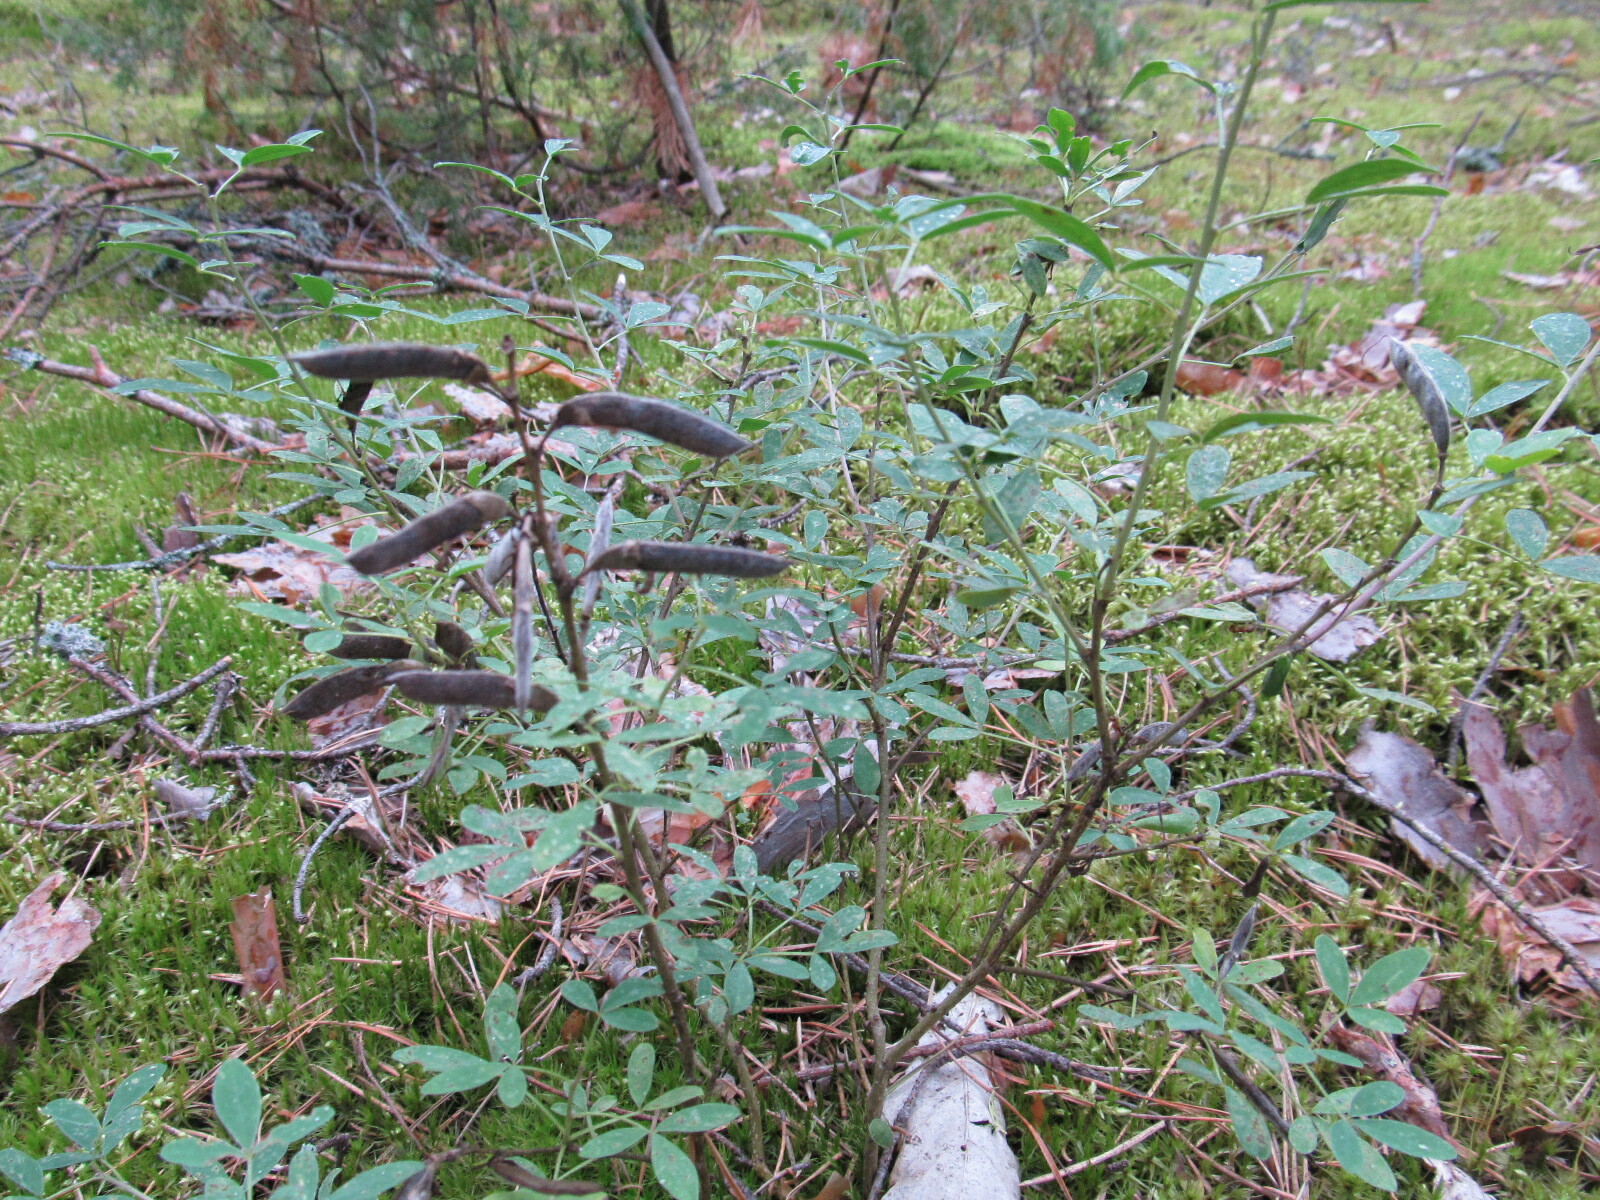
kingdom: Plantae
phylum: Tracheophyta
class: Magnoliopsida
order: Fabales
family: Fabaceae
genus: Chamaecytisus
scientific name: Chamaecytisus ruthenicus
